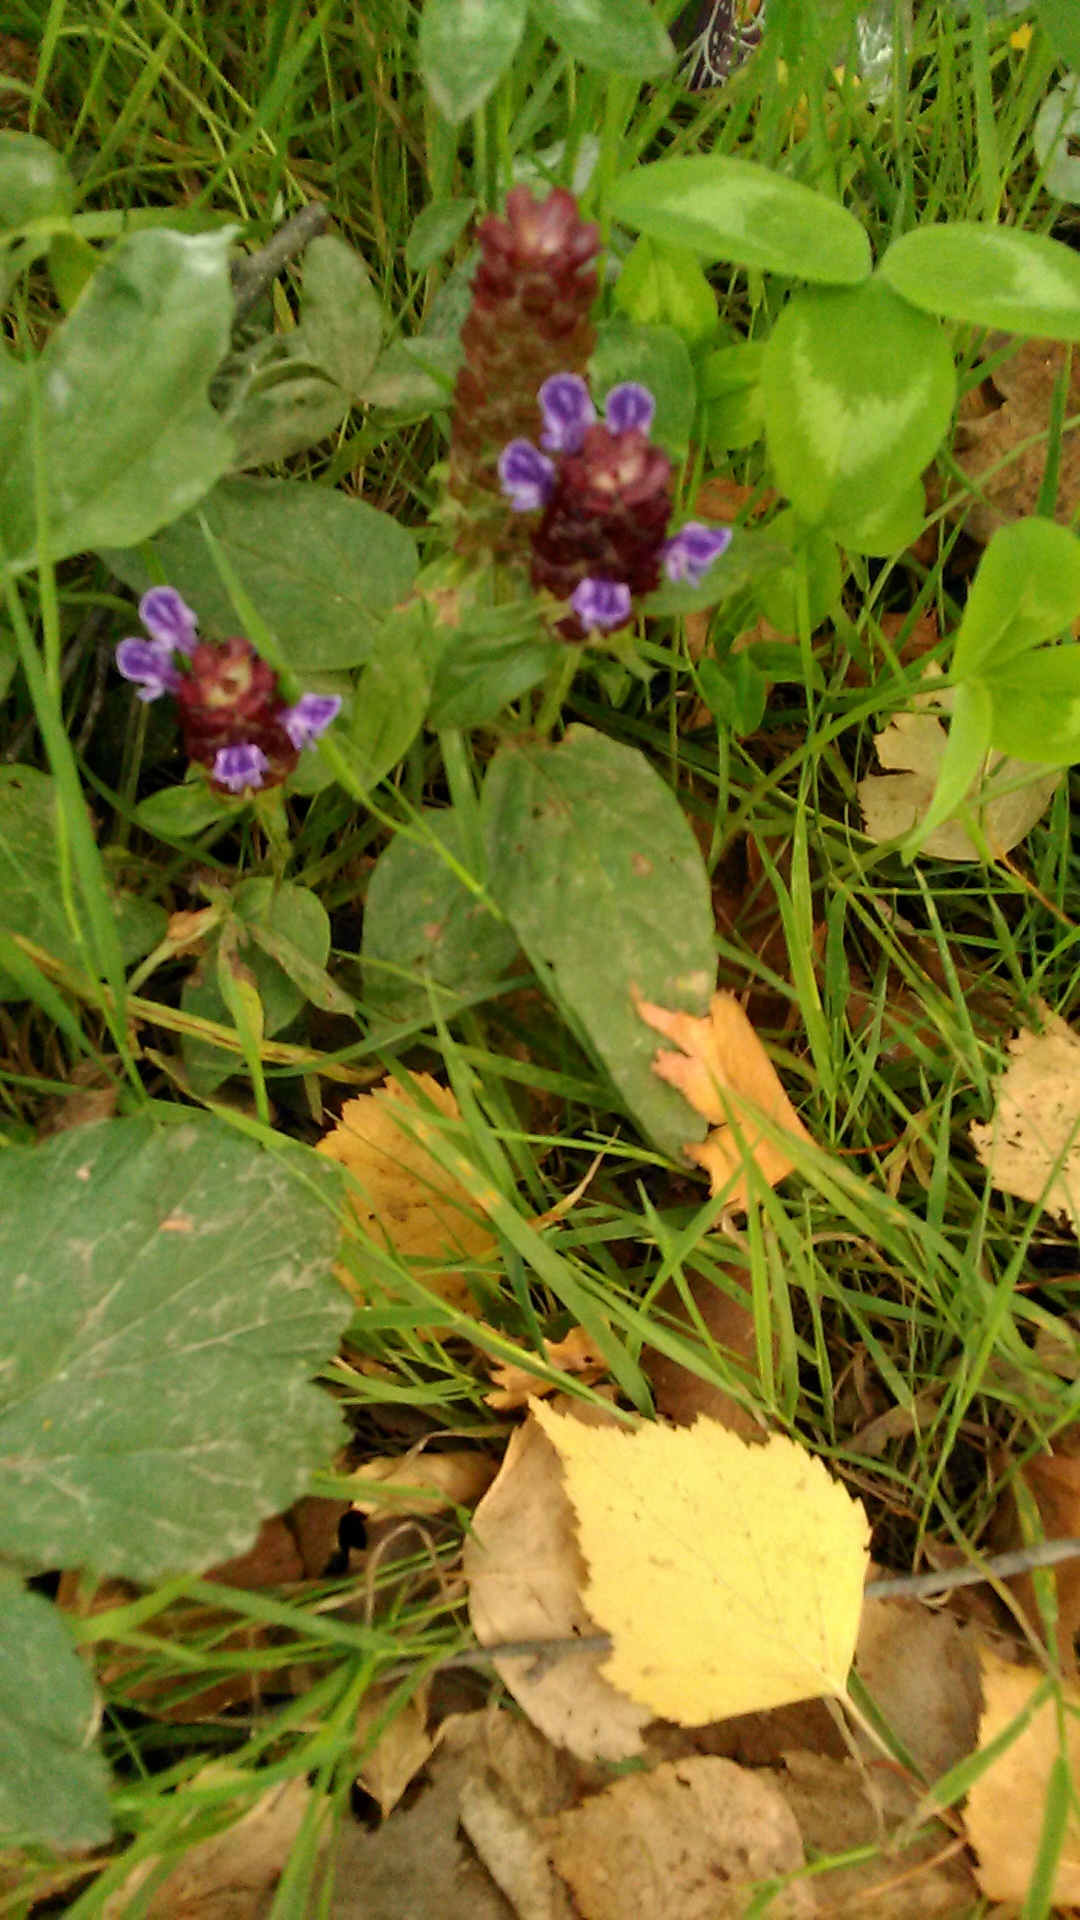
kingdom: Plantae
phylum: Tracheophyta
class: Magnoliopsida
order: Lamiales
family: Lamiaceae
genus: Prunella
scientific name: Prunella vulgaris
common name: Heal-all
